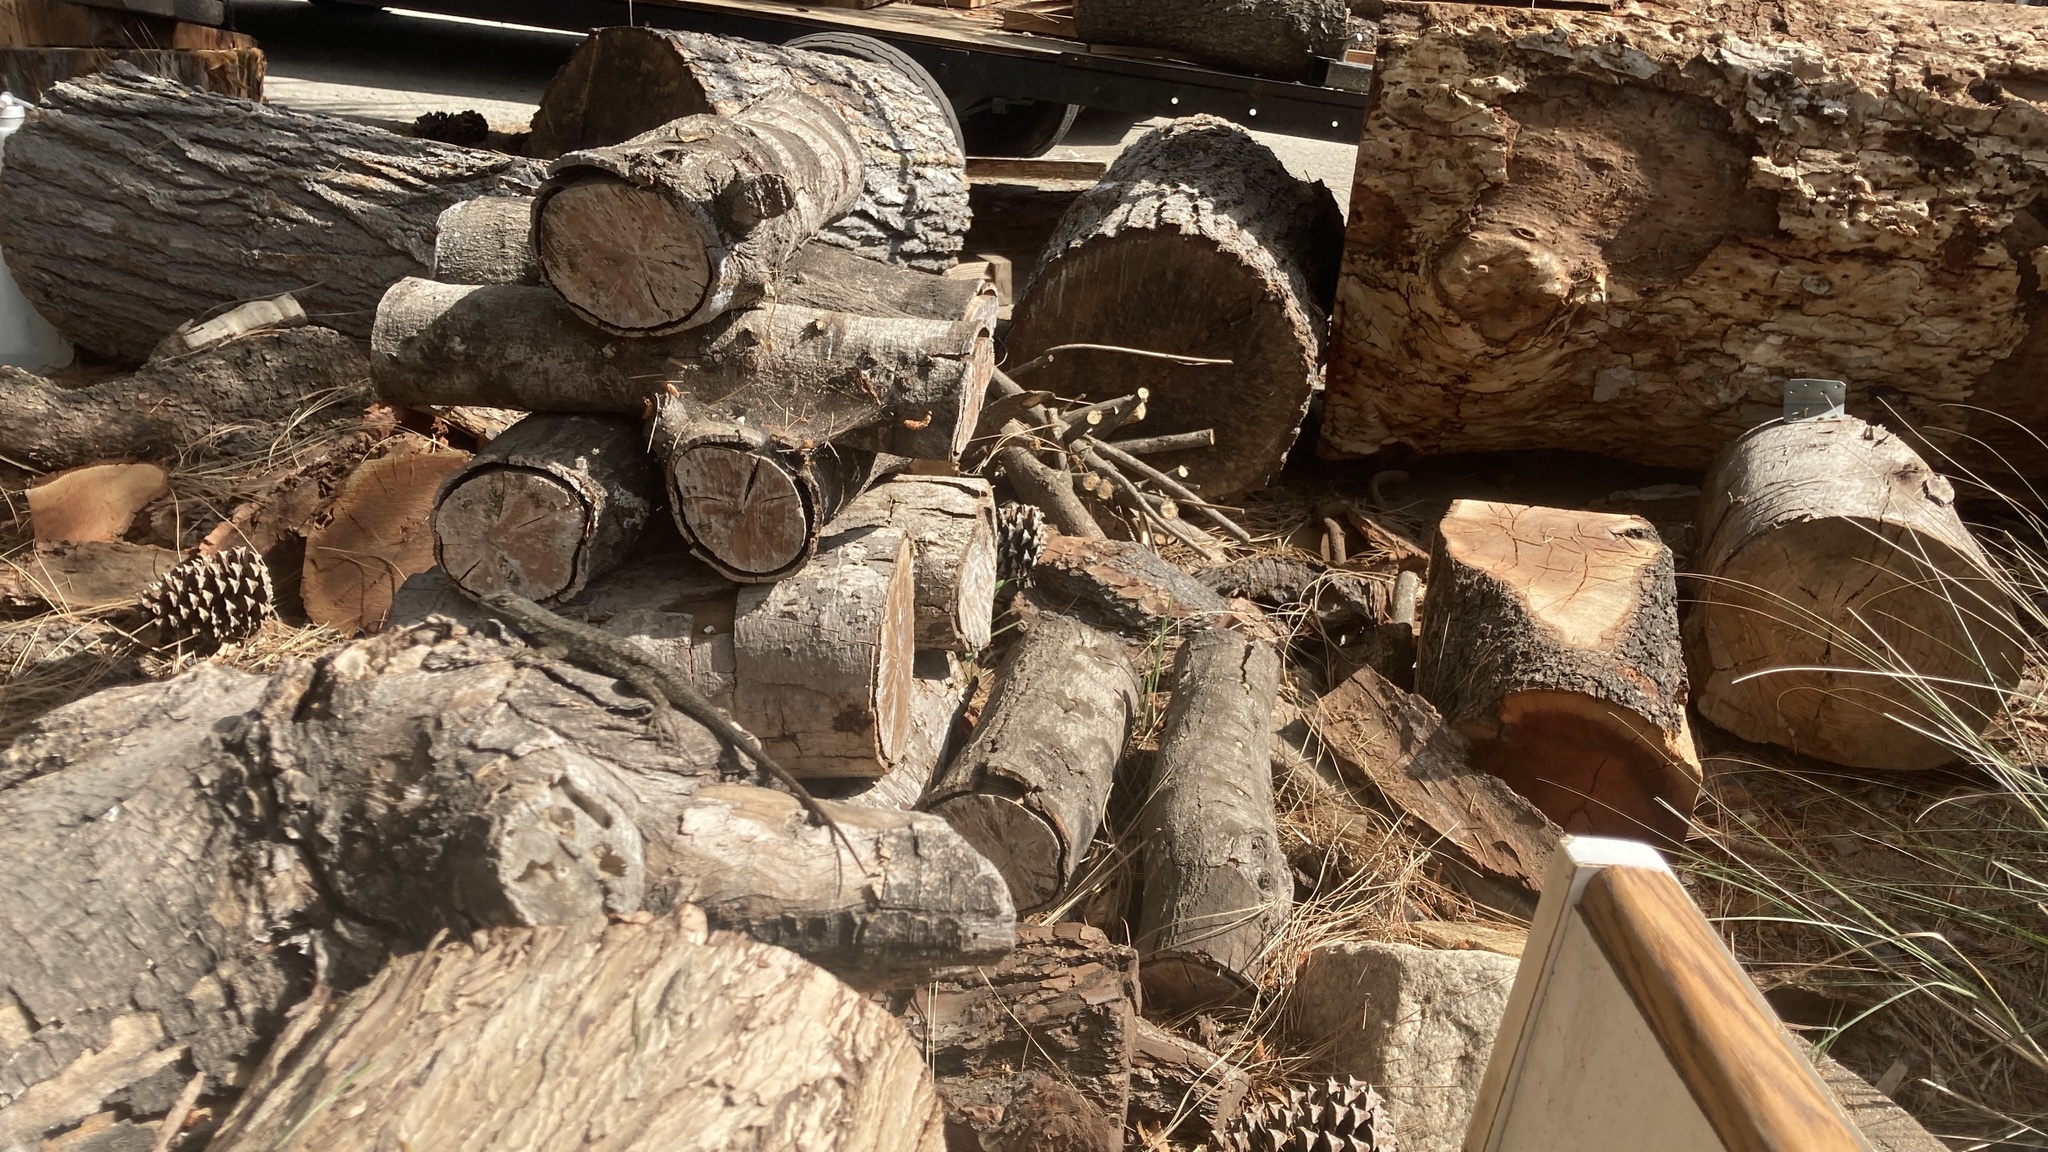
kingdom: Animalia
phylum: Chordata
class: Squamata
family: Phrynosomatidae
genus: Sceloporus
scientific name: Sceloporus occidentalis
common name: Western fence lizard
